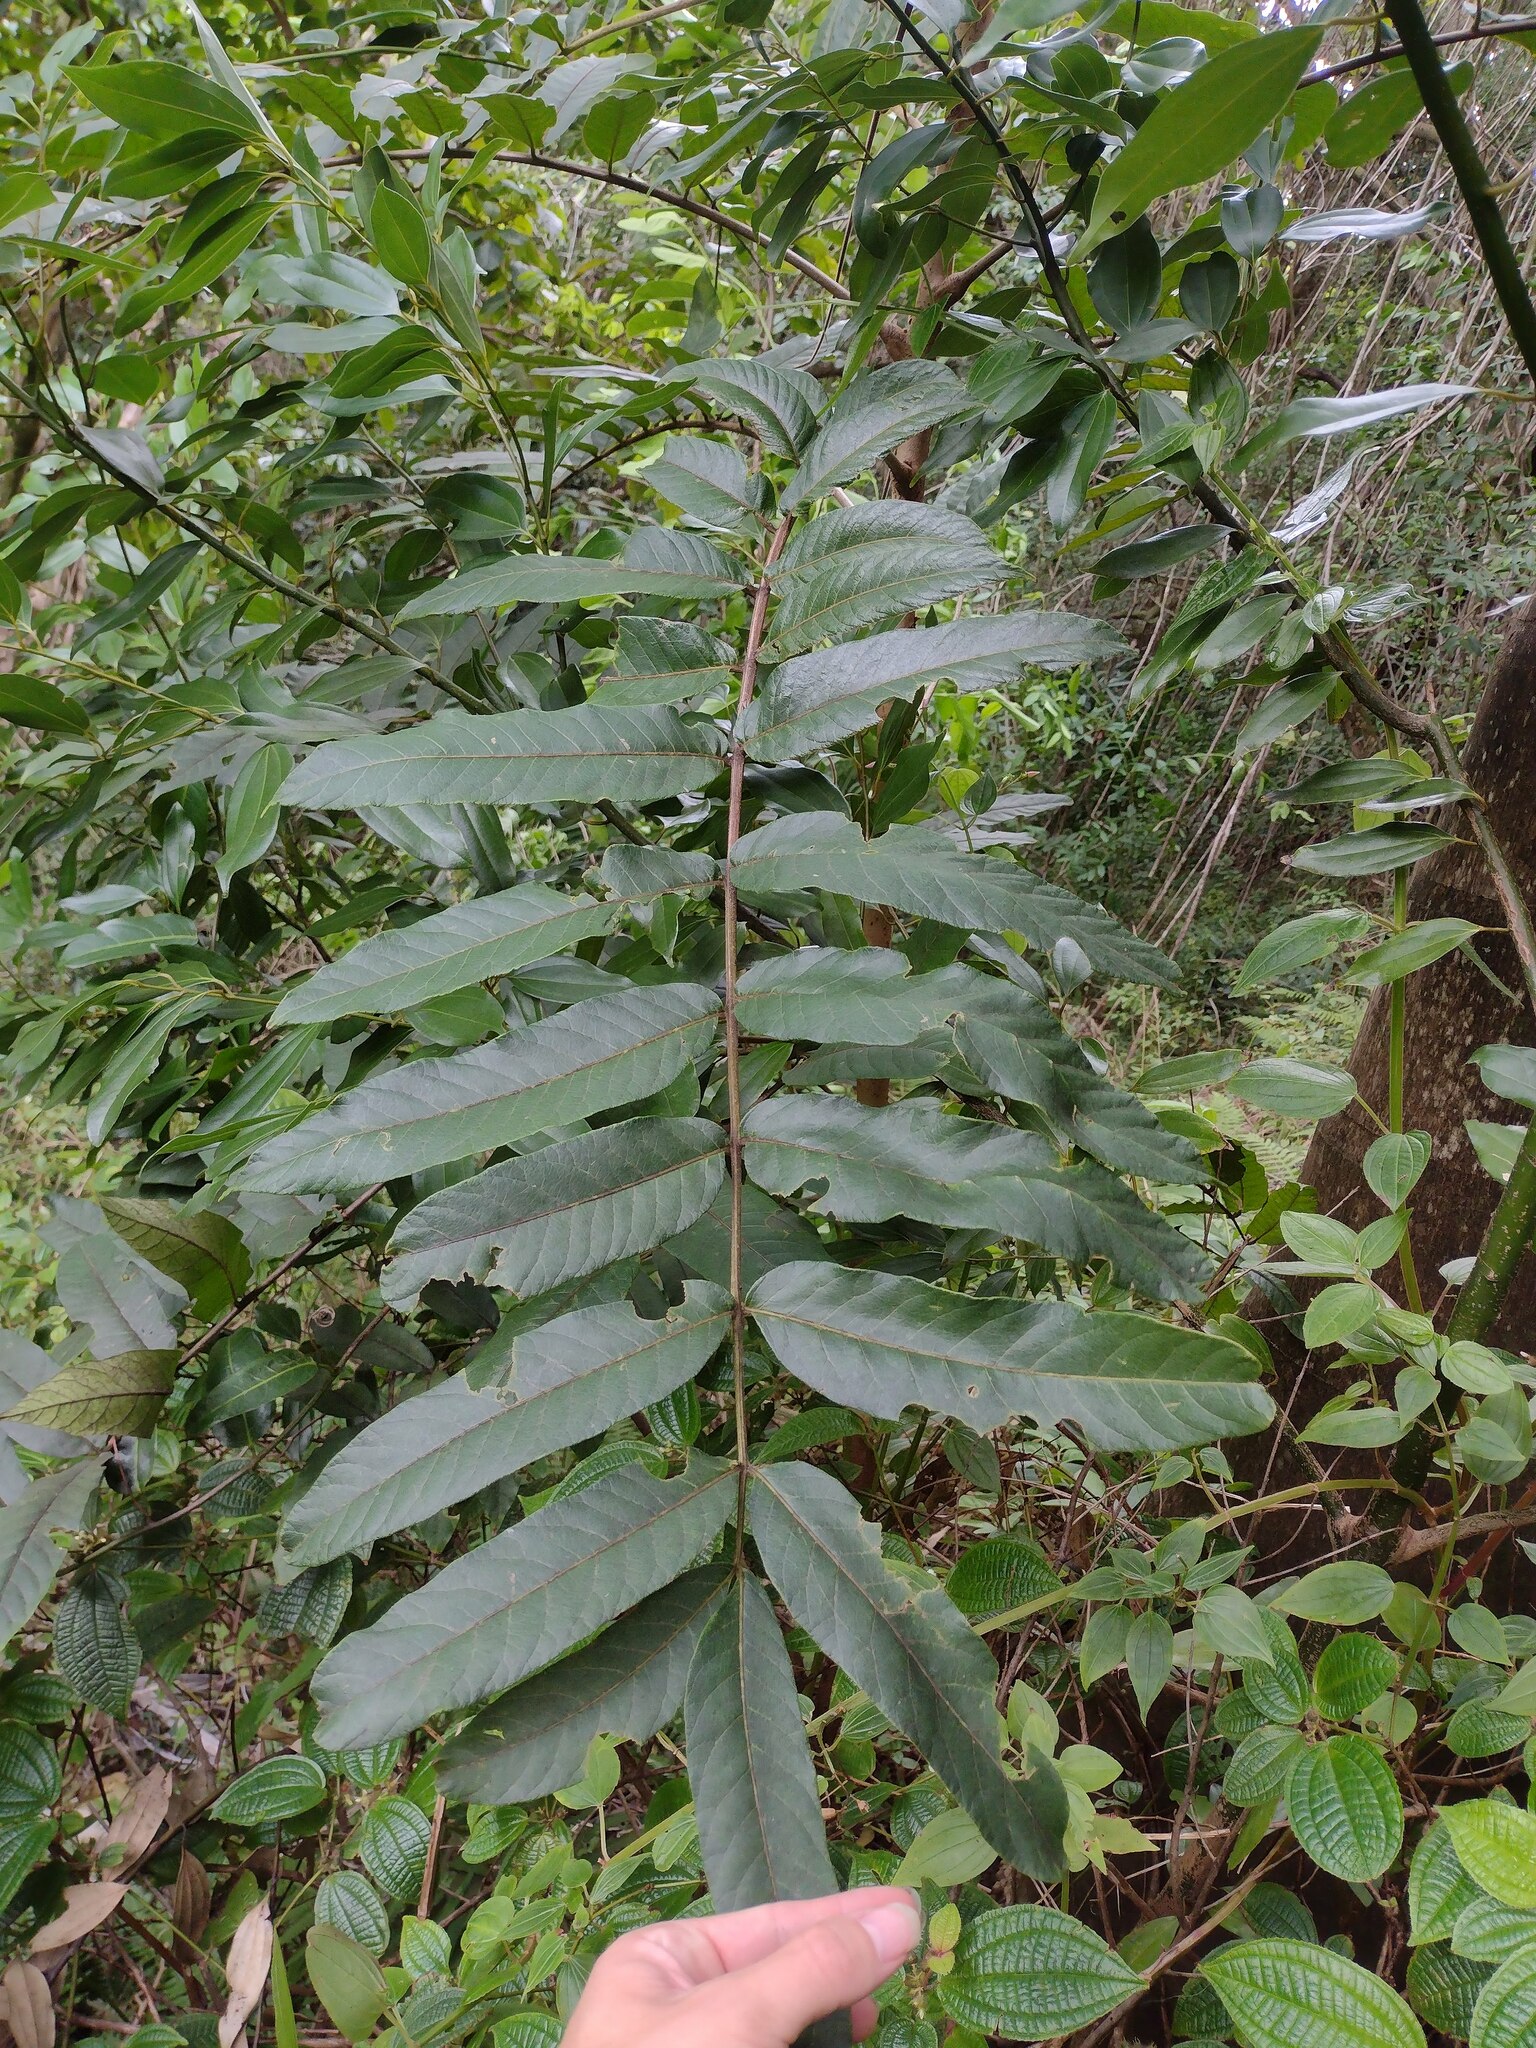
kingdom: Plantae
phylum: Tracheophyta
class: Magnoliopsida
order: Sapindales
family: Anacardiaceae
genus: Melanococca
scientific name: Melanococca tomentosa
